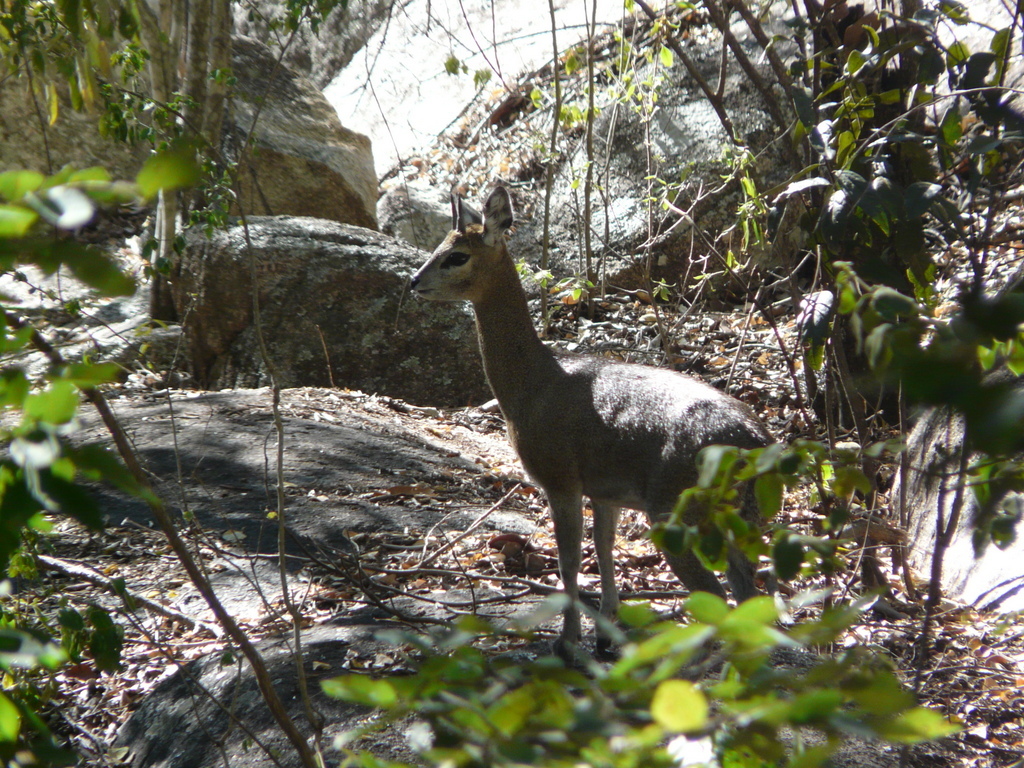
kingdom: Animalia
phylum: Chordata
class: Mammalia
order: Artiodactyla
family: Bovidae
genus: Oreotragus
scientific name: Oreotragus oreotragus
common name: Klipspringer
